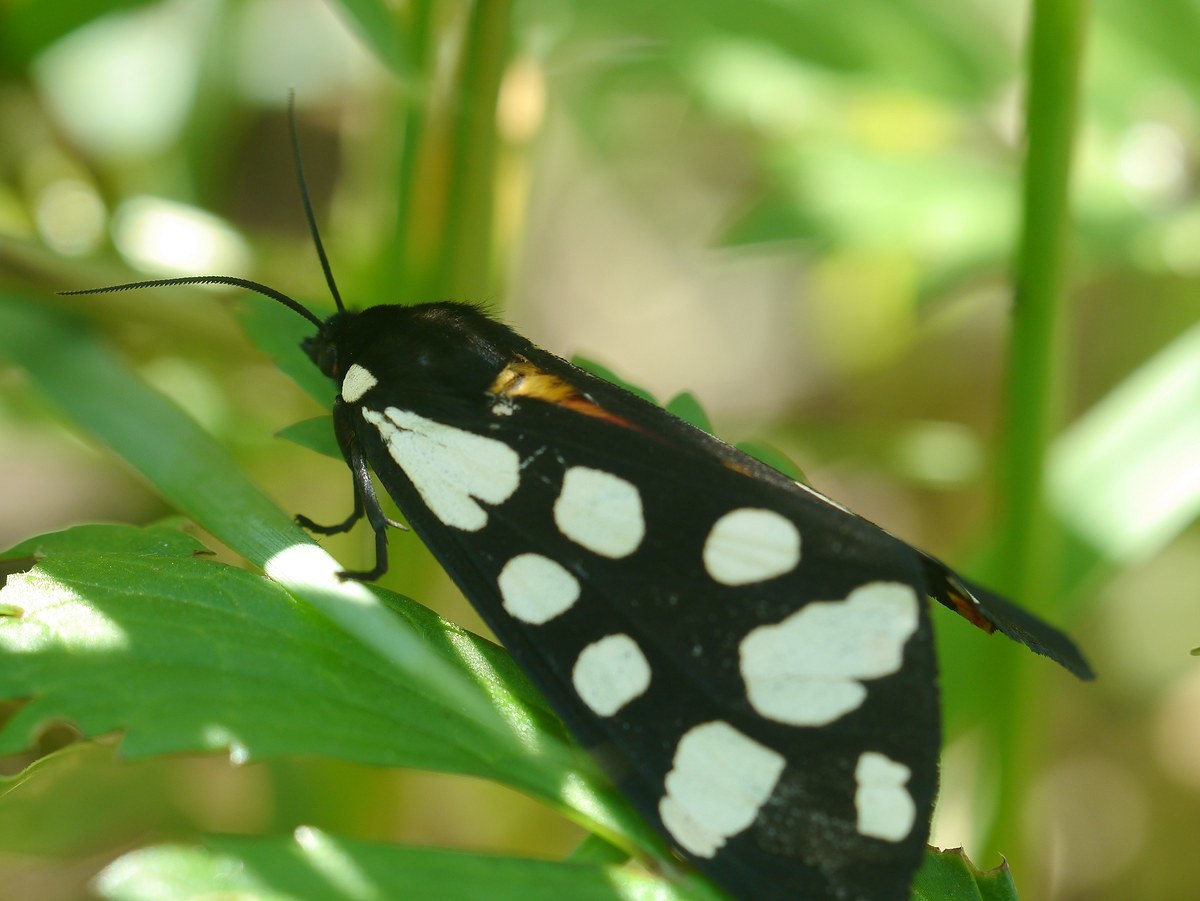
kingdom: Animalia
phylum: Arthropoda
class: Insecta
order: Lepidoptera
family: Erebidae
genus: Epicallia
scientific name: Epicallia villica
